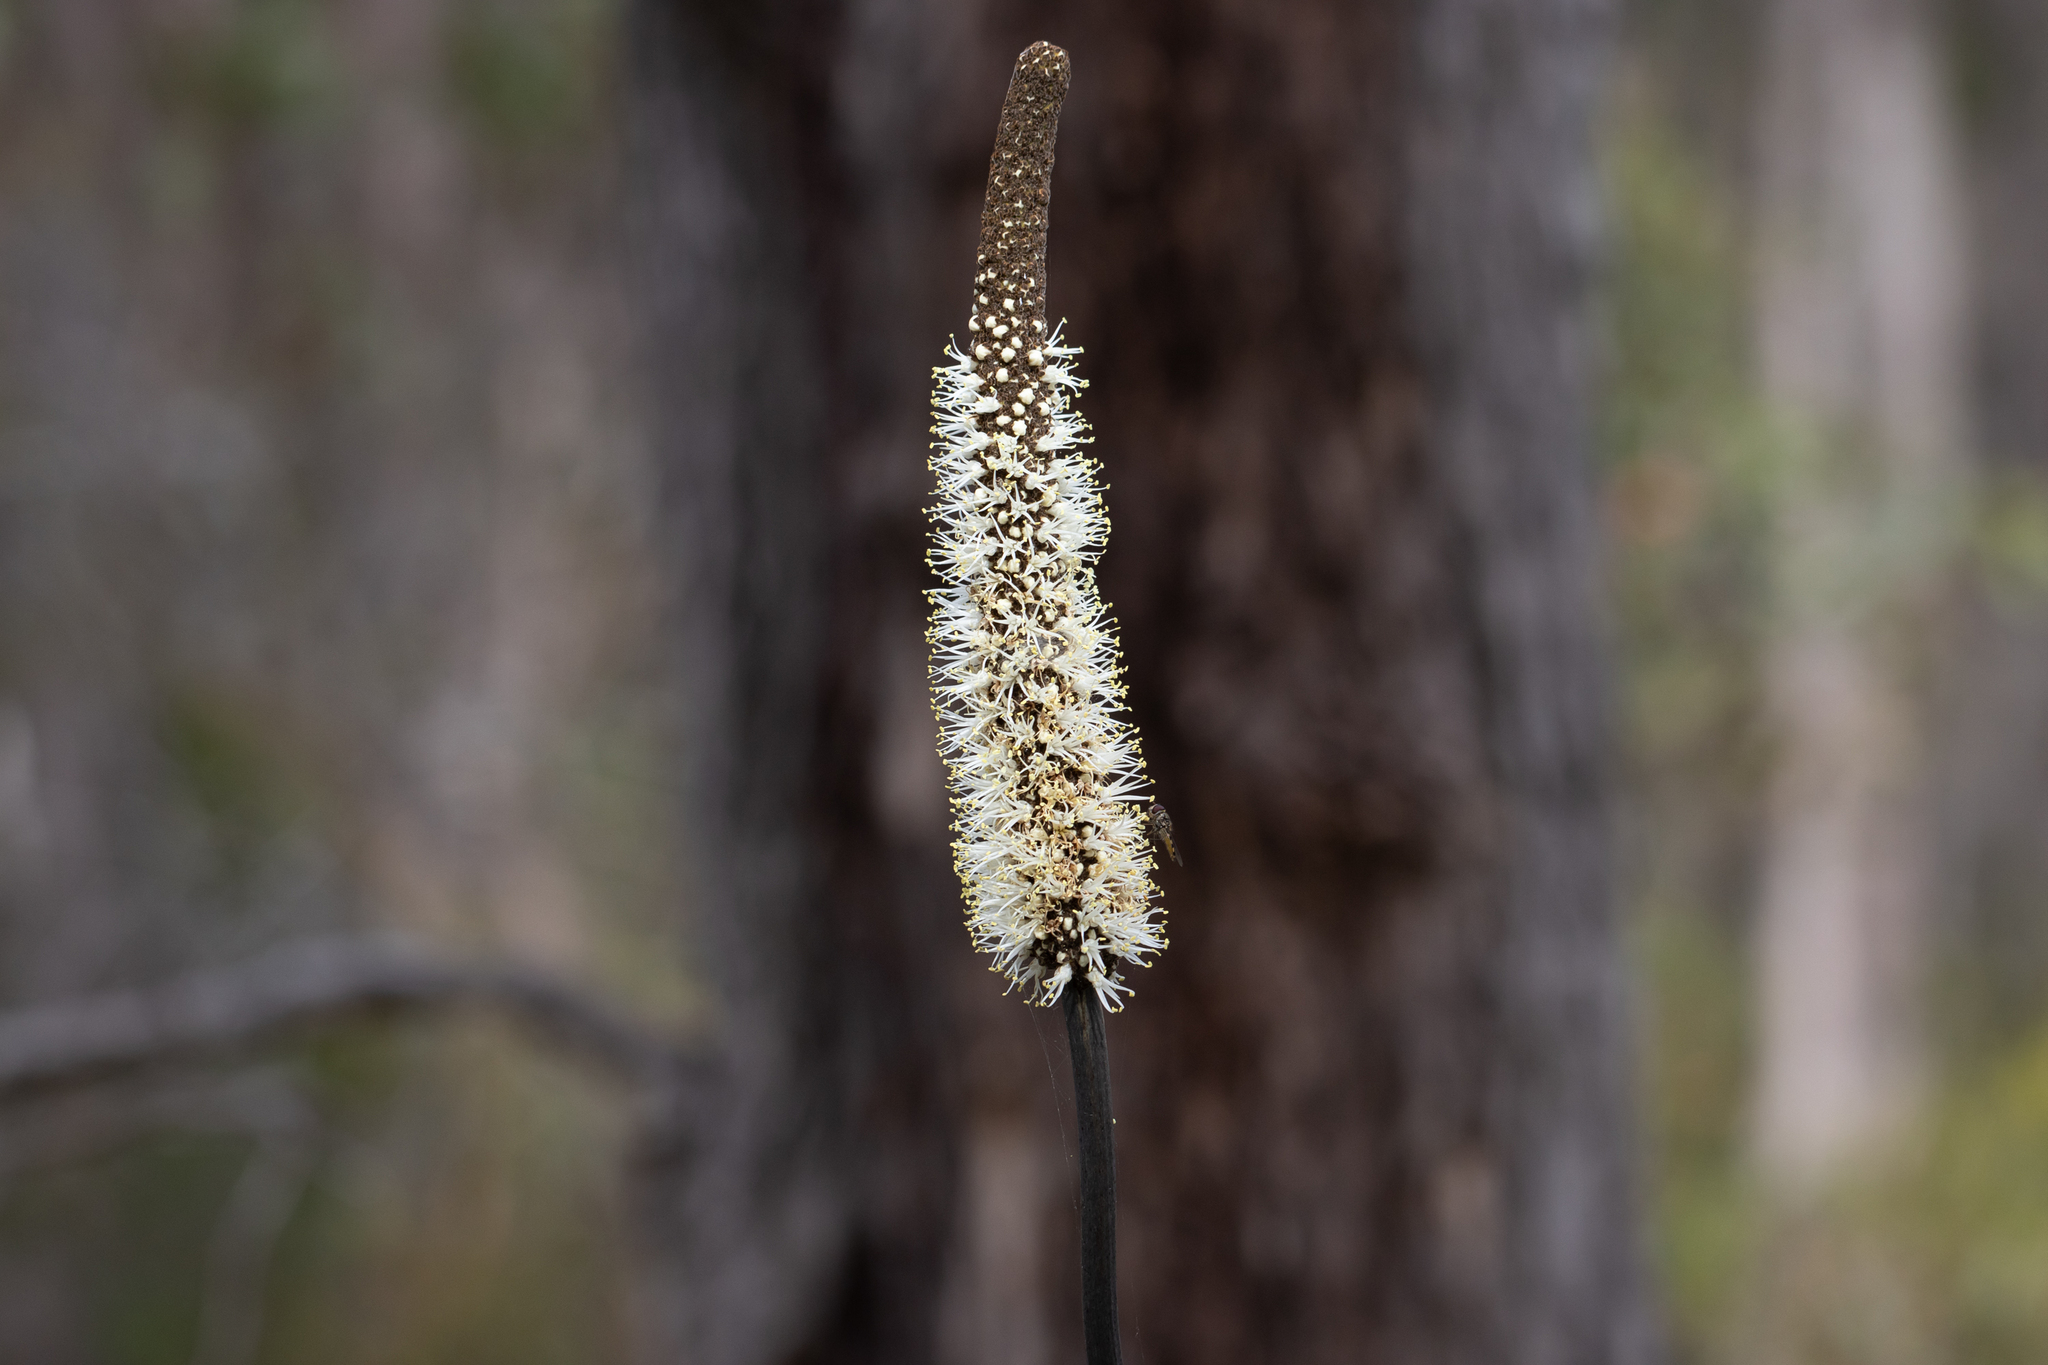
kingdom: Plantae
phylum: Tracheophyta
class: Liliopsida
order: Asparagales
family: Asphodelaceae
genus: Xanthorrhoea
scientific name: Xanthorrhoea gracilis
